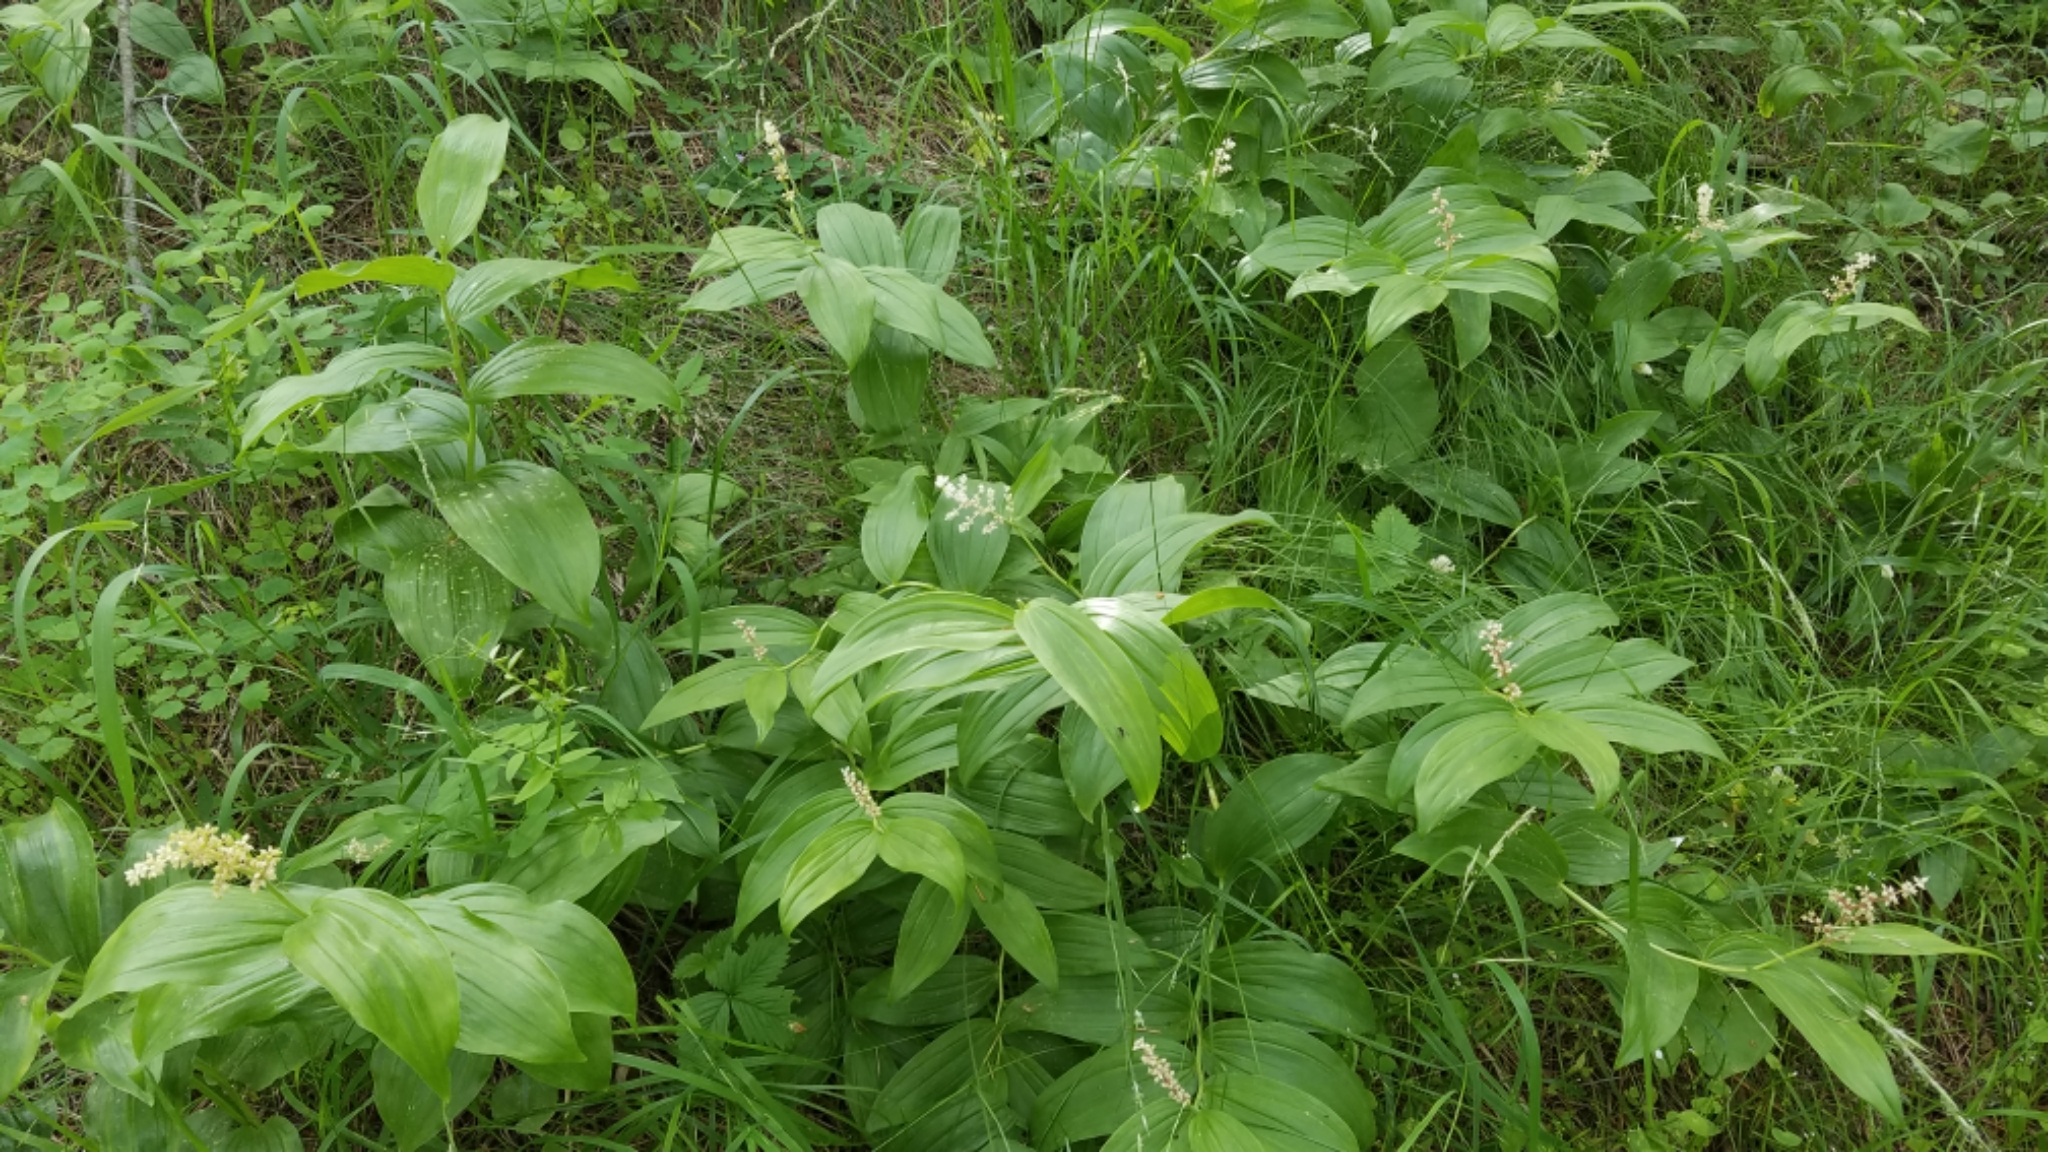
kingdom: Plantae
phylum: Tracheophyta
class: Liliopsida
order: Asparagales
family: Asparagaceae
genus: Maianthemum
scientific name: Maianthemum racemosum
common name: False spikenard
